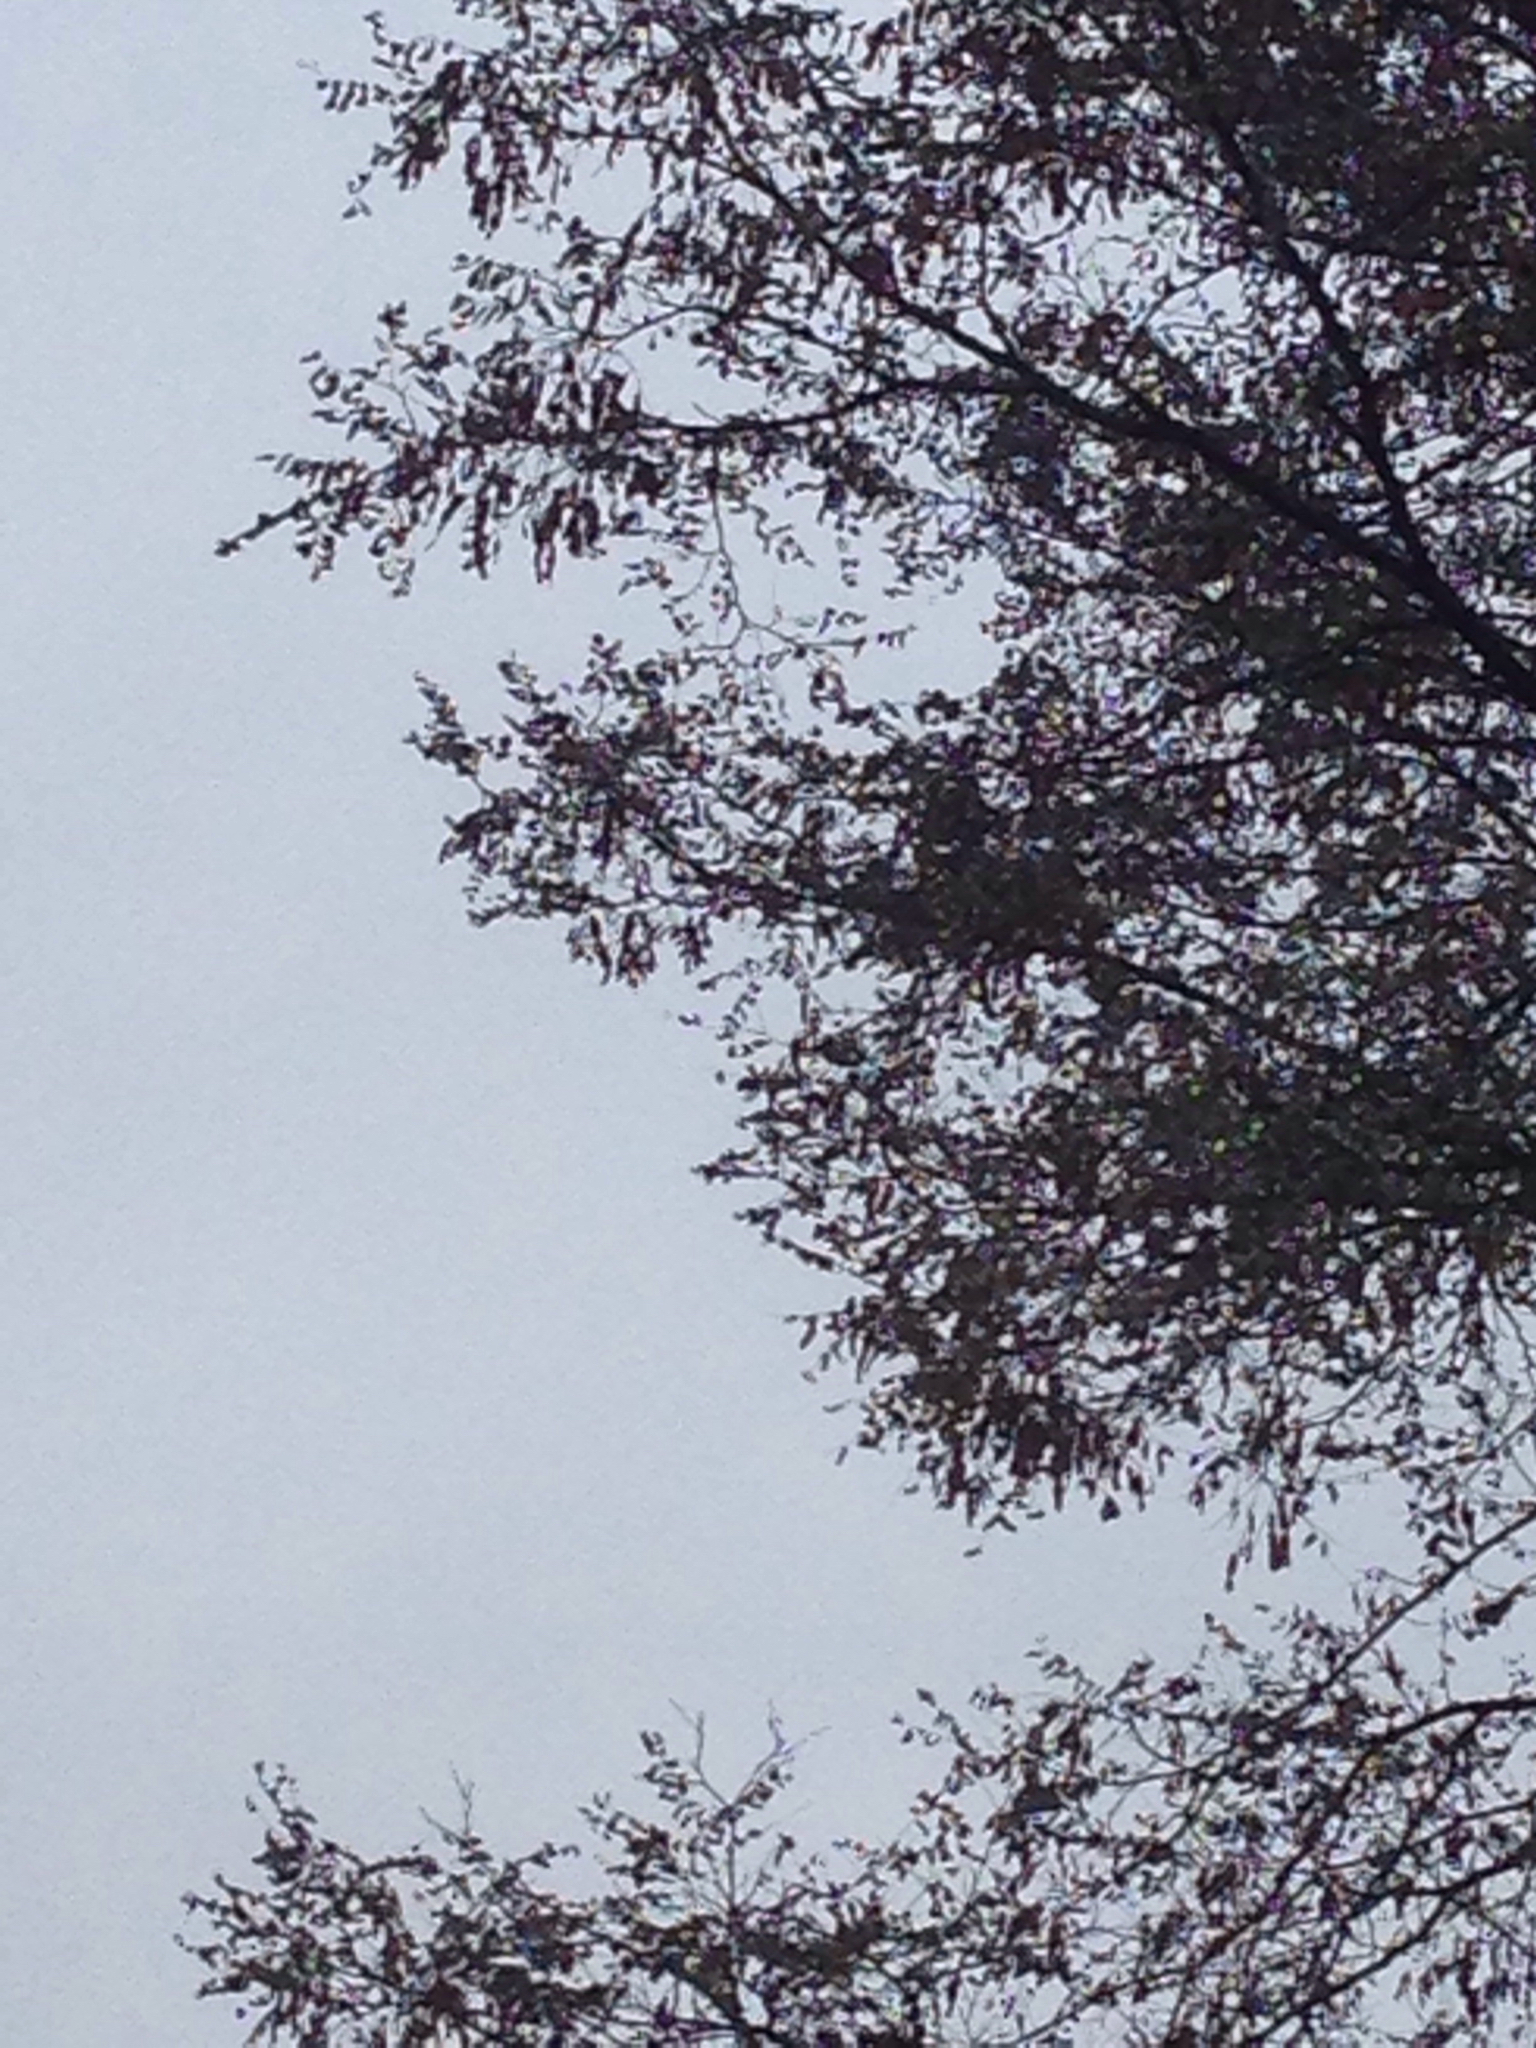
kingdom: Plantae
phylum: Tracheophyta
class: Magnoliopsida
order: Fabales
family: Fabaceae
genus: Robinia
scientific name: Robinia pseudoacacia
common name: Black locust
